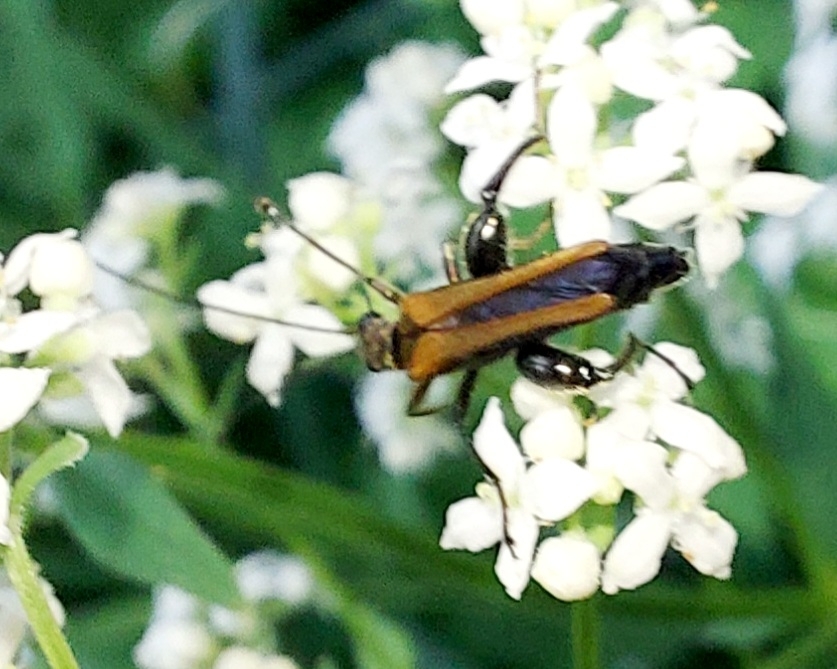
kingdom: Animalia
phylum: Arthropoda
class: Insecta
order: Coleoptera
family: Oedemeridae
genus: Oedemera
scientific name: Oedemera femorata
